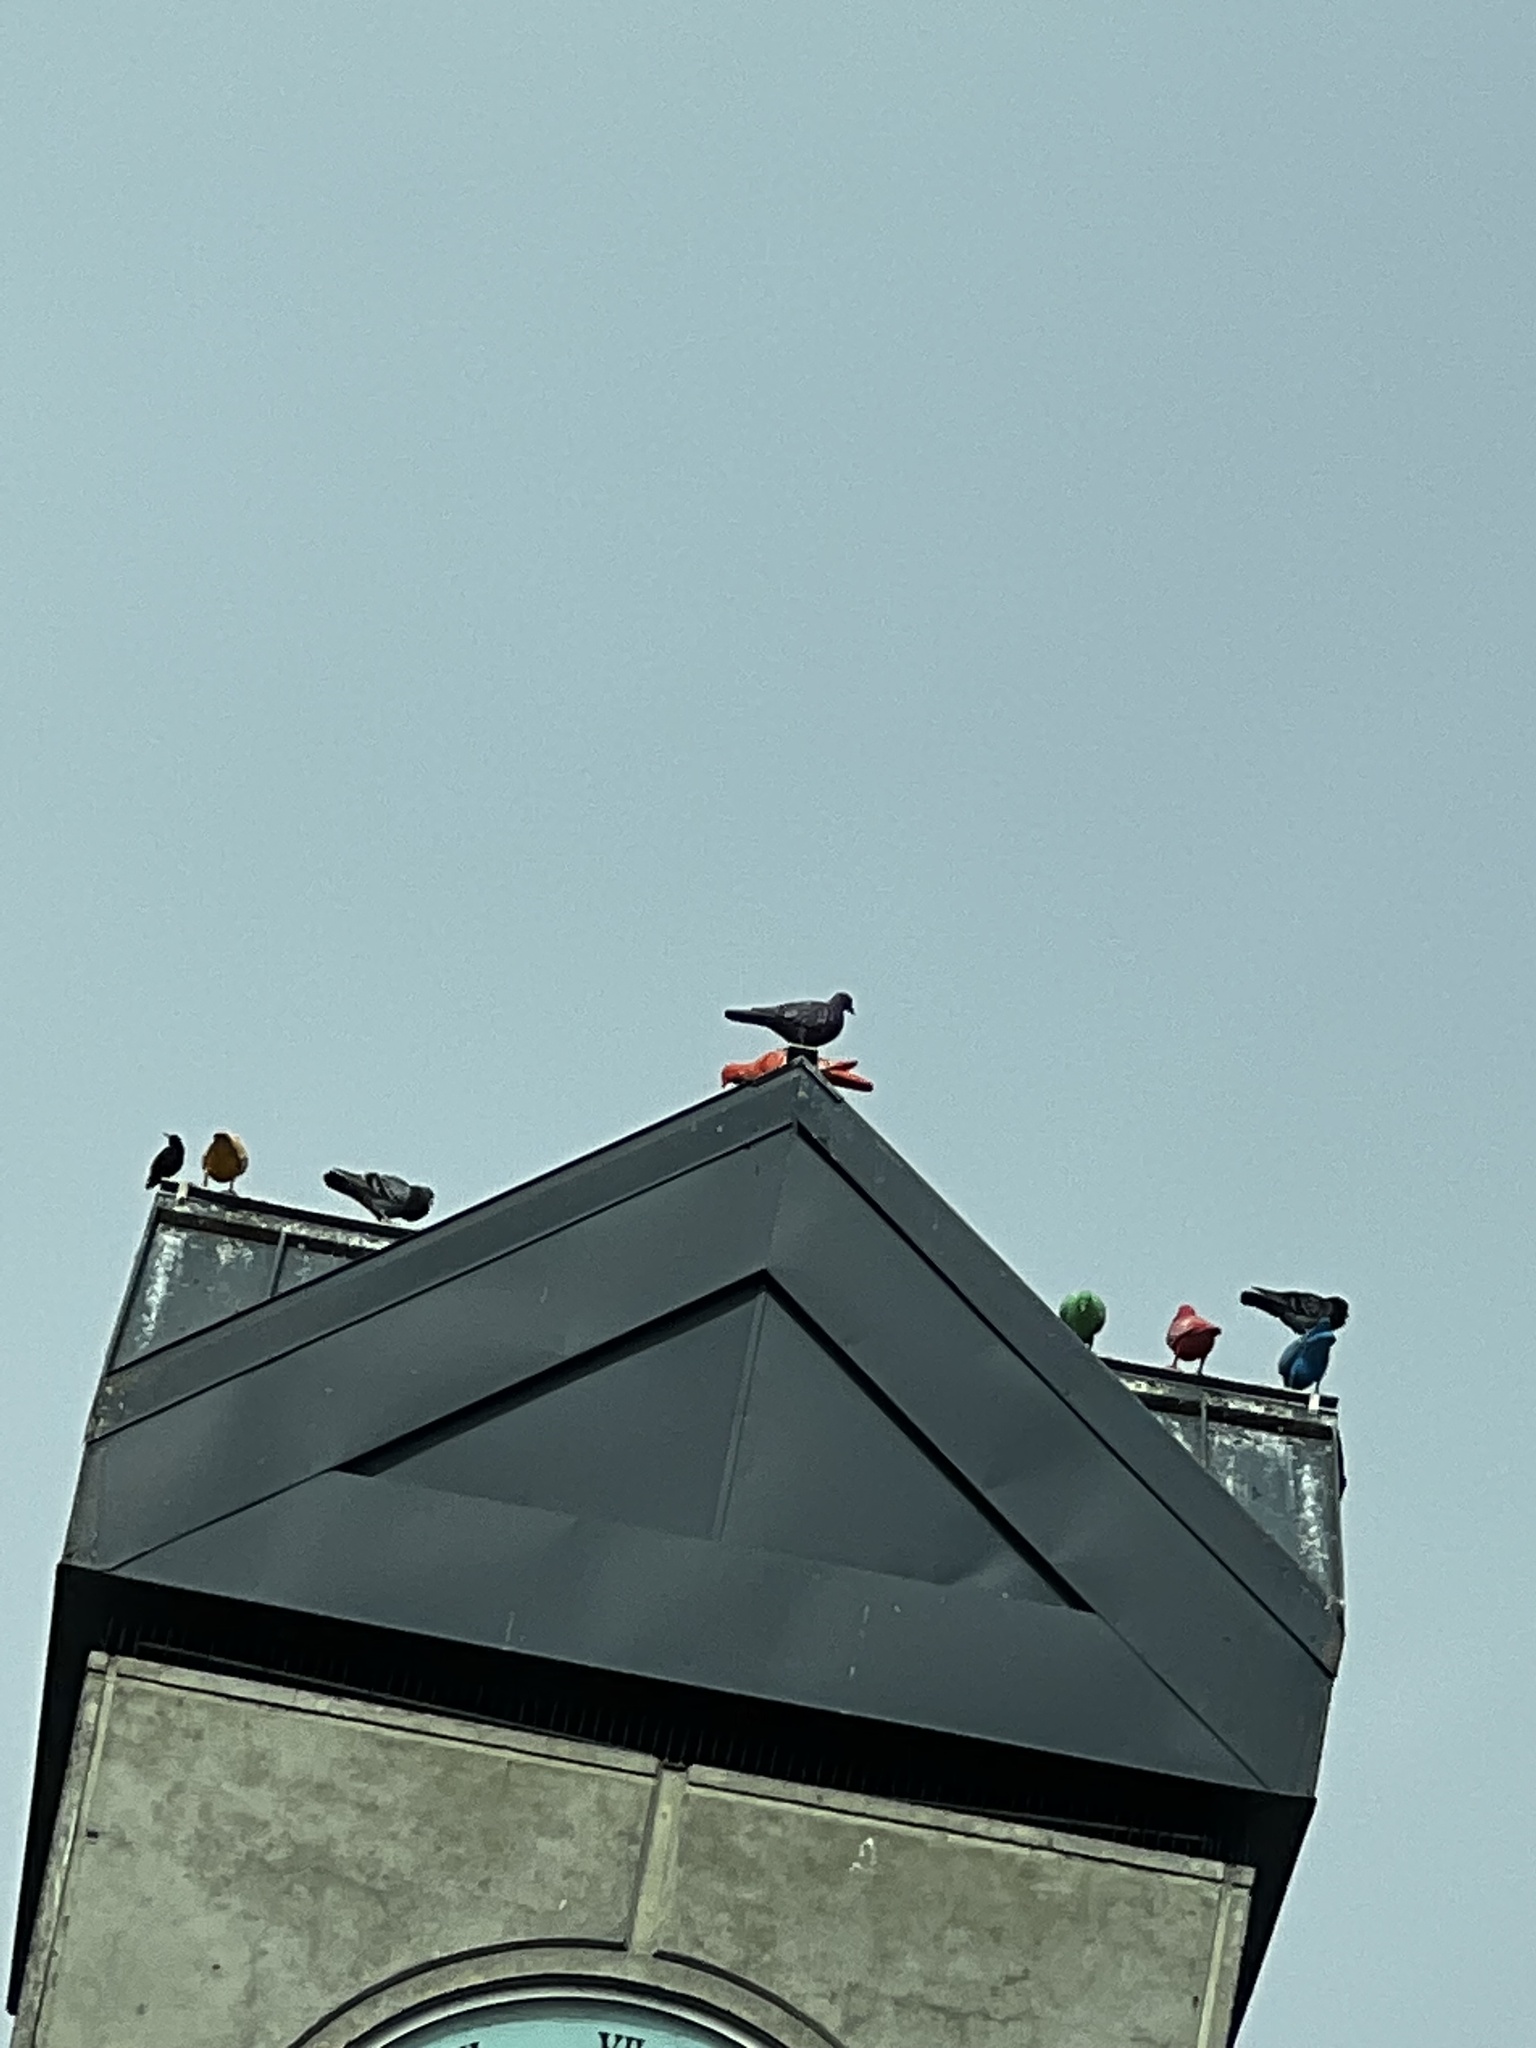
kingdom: Animalia
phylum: Chordata
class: Aves
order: Columbiformes
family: Columbidae
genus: Columba
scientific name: Columba livia
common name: Rock pigeon
